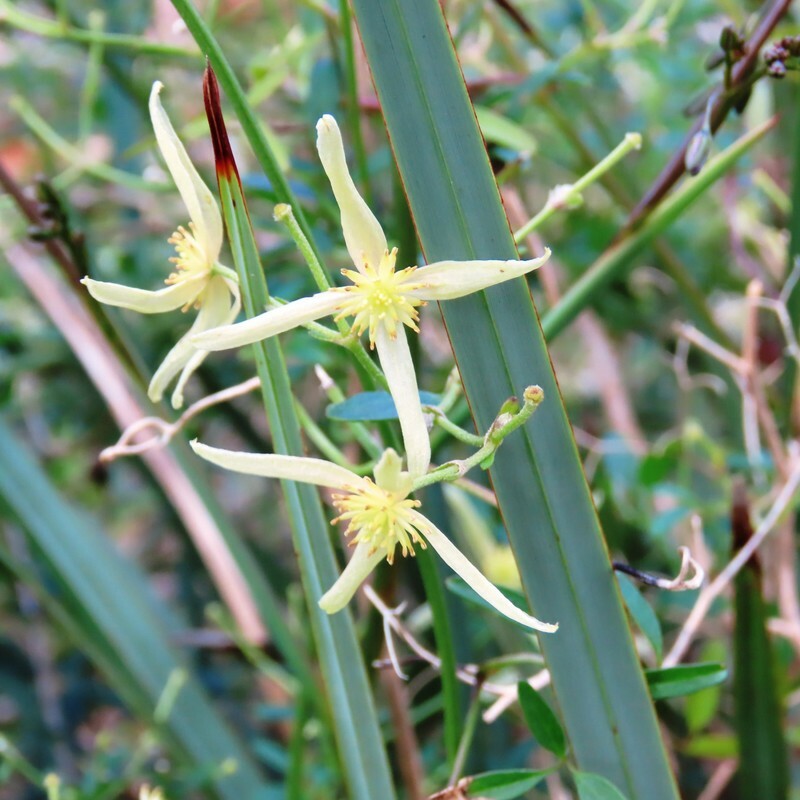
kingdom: Plantae
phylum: Tracheophyta
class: Magnoliopsida
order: Ranunculales
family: Ranunculaceae
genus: Clematis
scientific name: Clematis microphylla
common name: Headachevine
